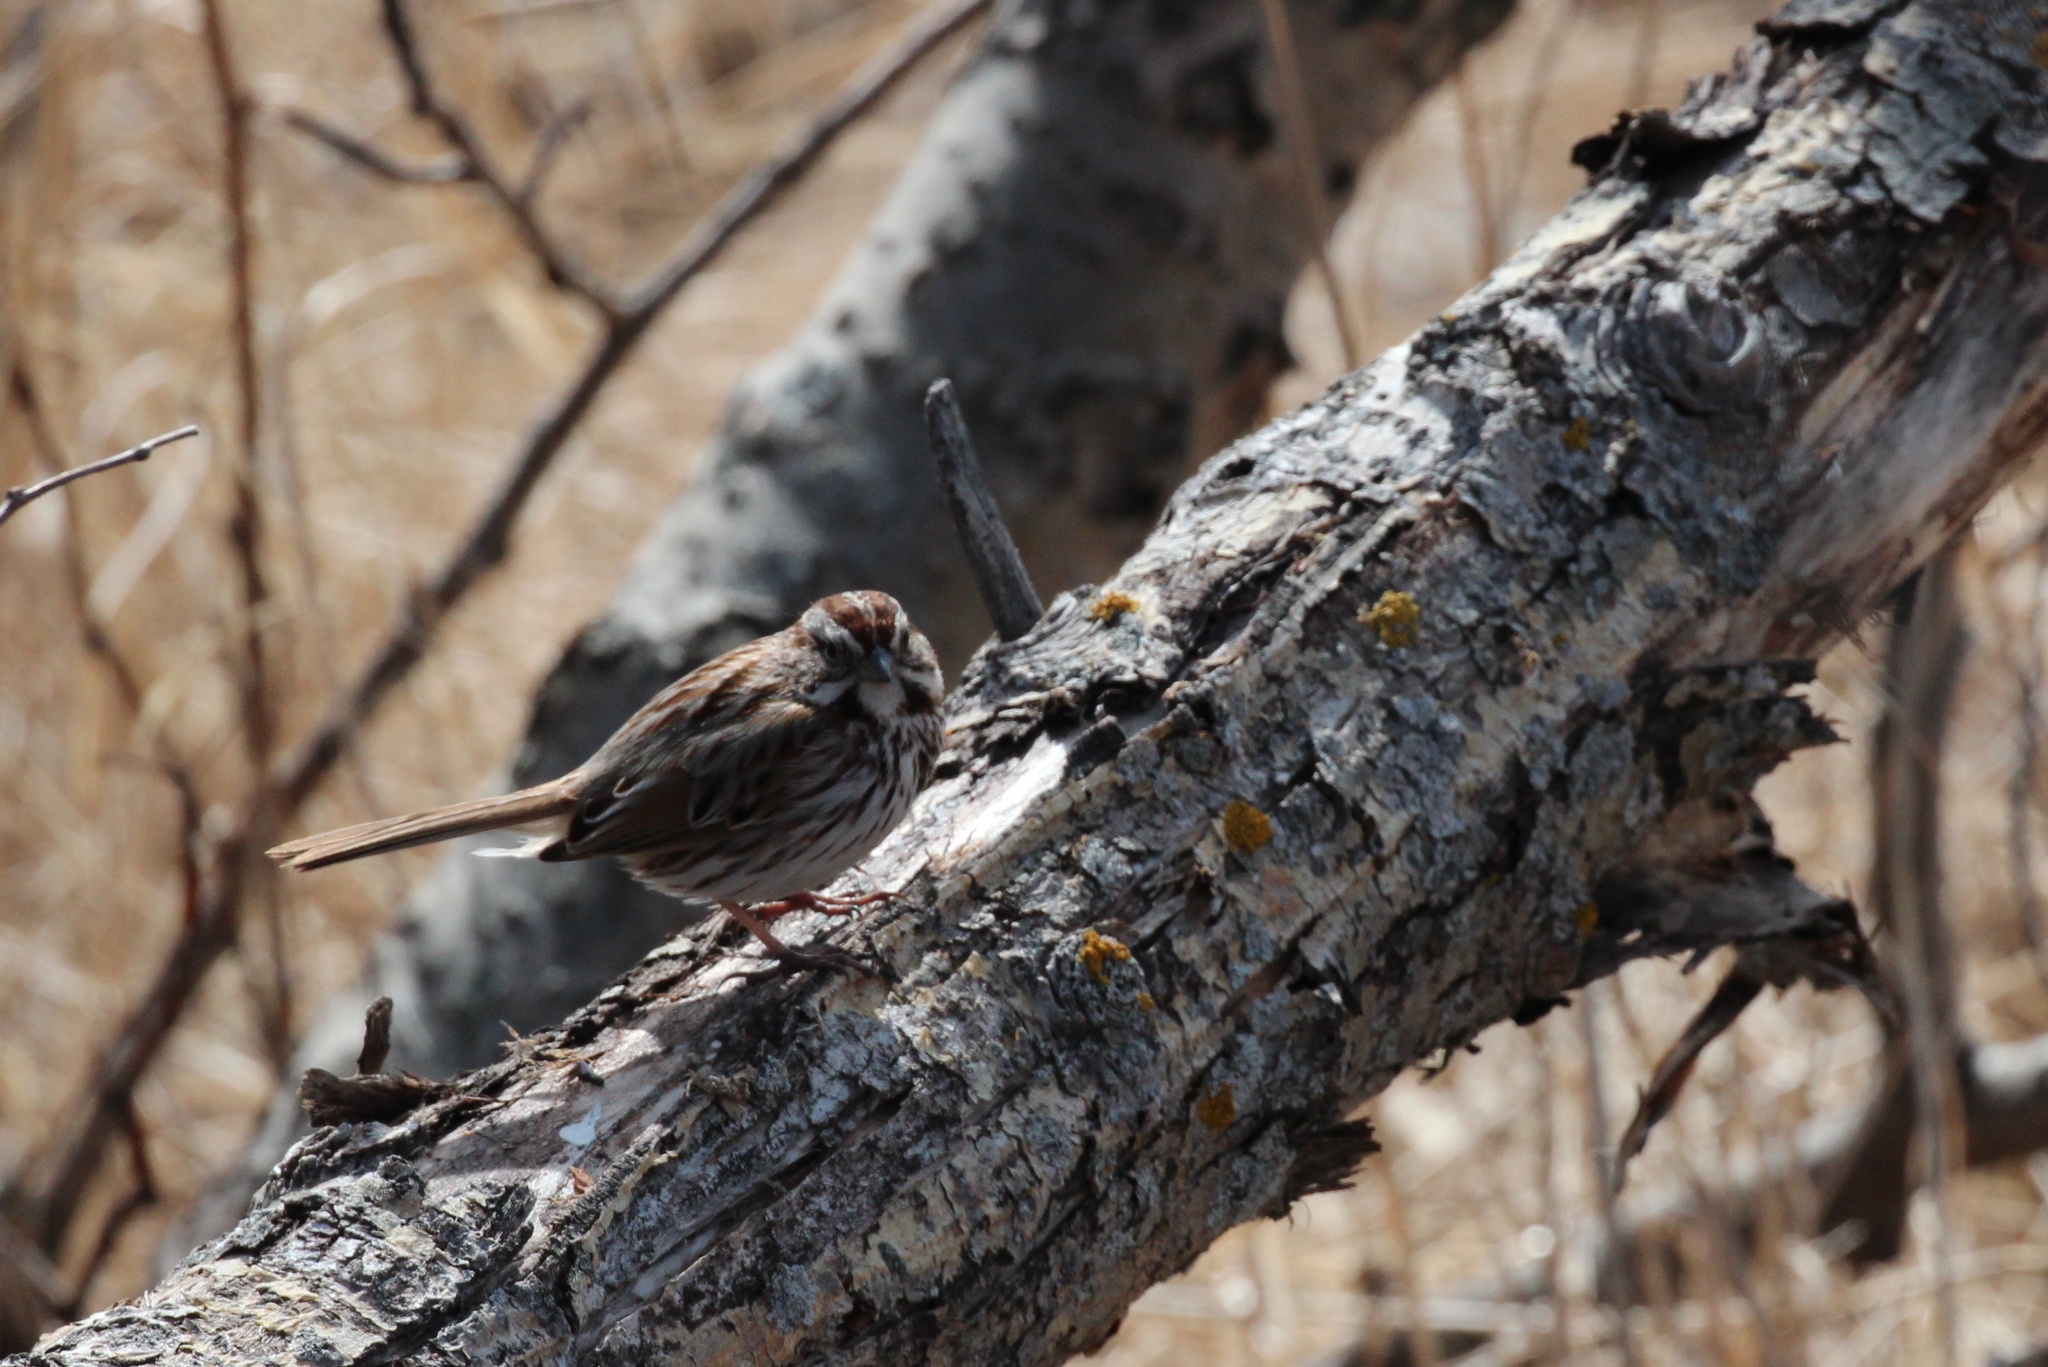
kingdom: Animalia
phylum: Chordata
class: Aves
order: Passeriformes
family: Passerellidae
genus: Melospiza
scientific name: Melospiza melodia
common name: Song sparrow
